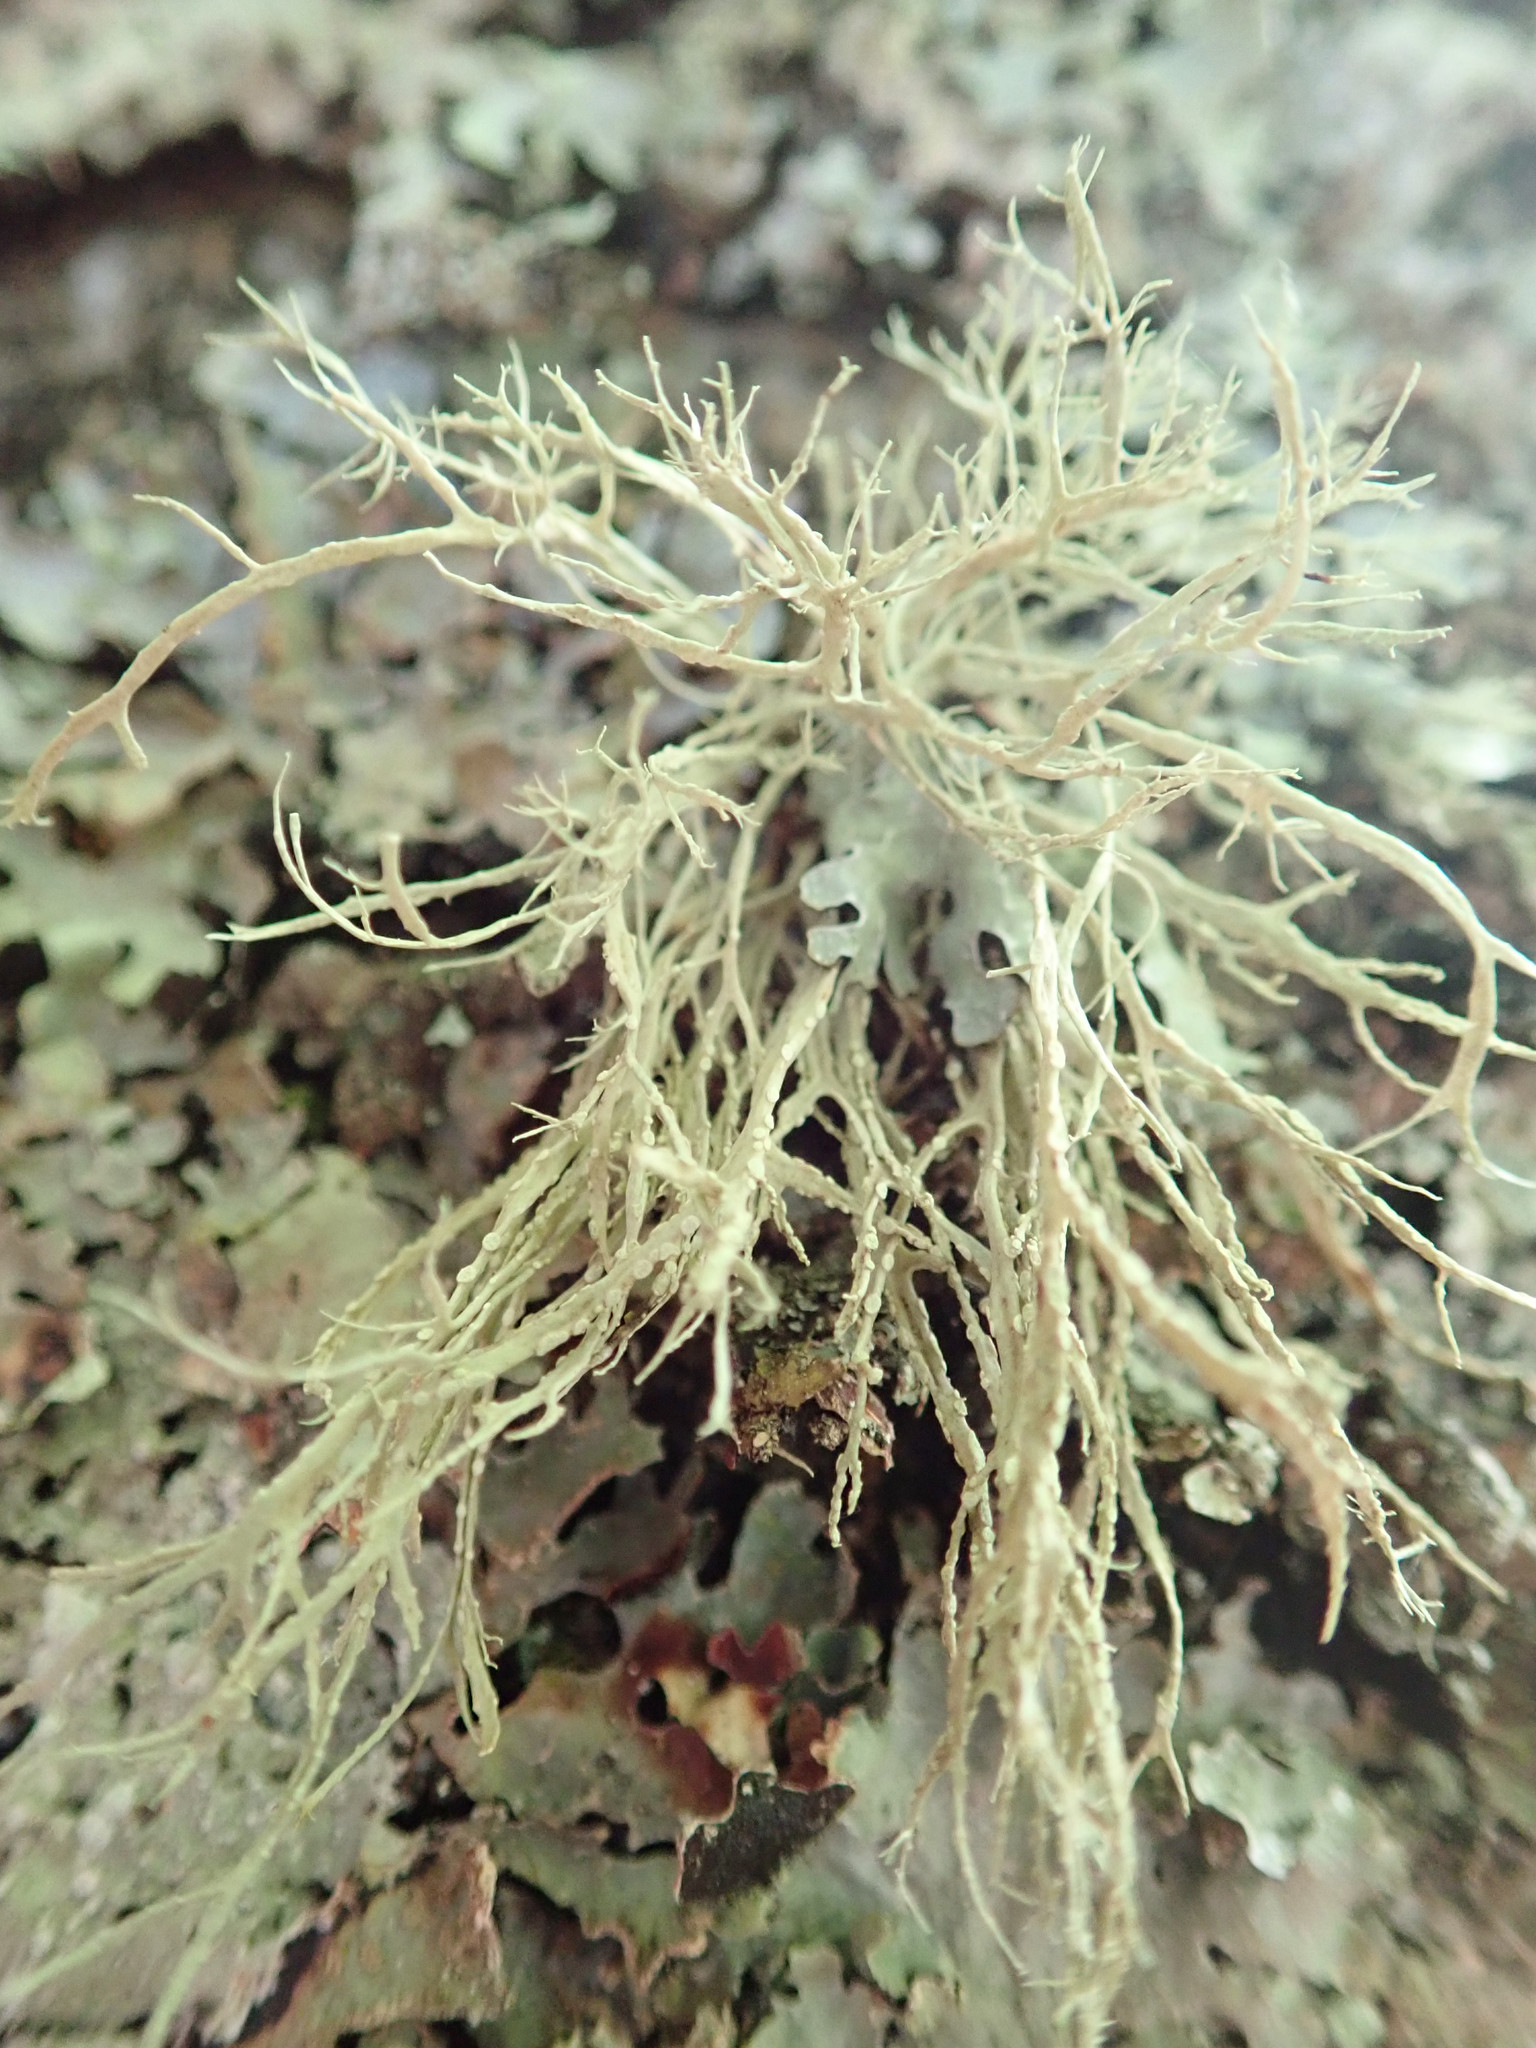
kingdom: Fungi
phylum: Ascomycota
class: Lecanoromycetes
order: Lecanorales
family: Ramalinaceae
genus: Ramalina
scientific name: Ramalina farinacea
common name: Farinose cartilage lichen
